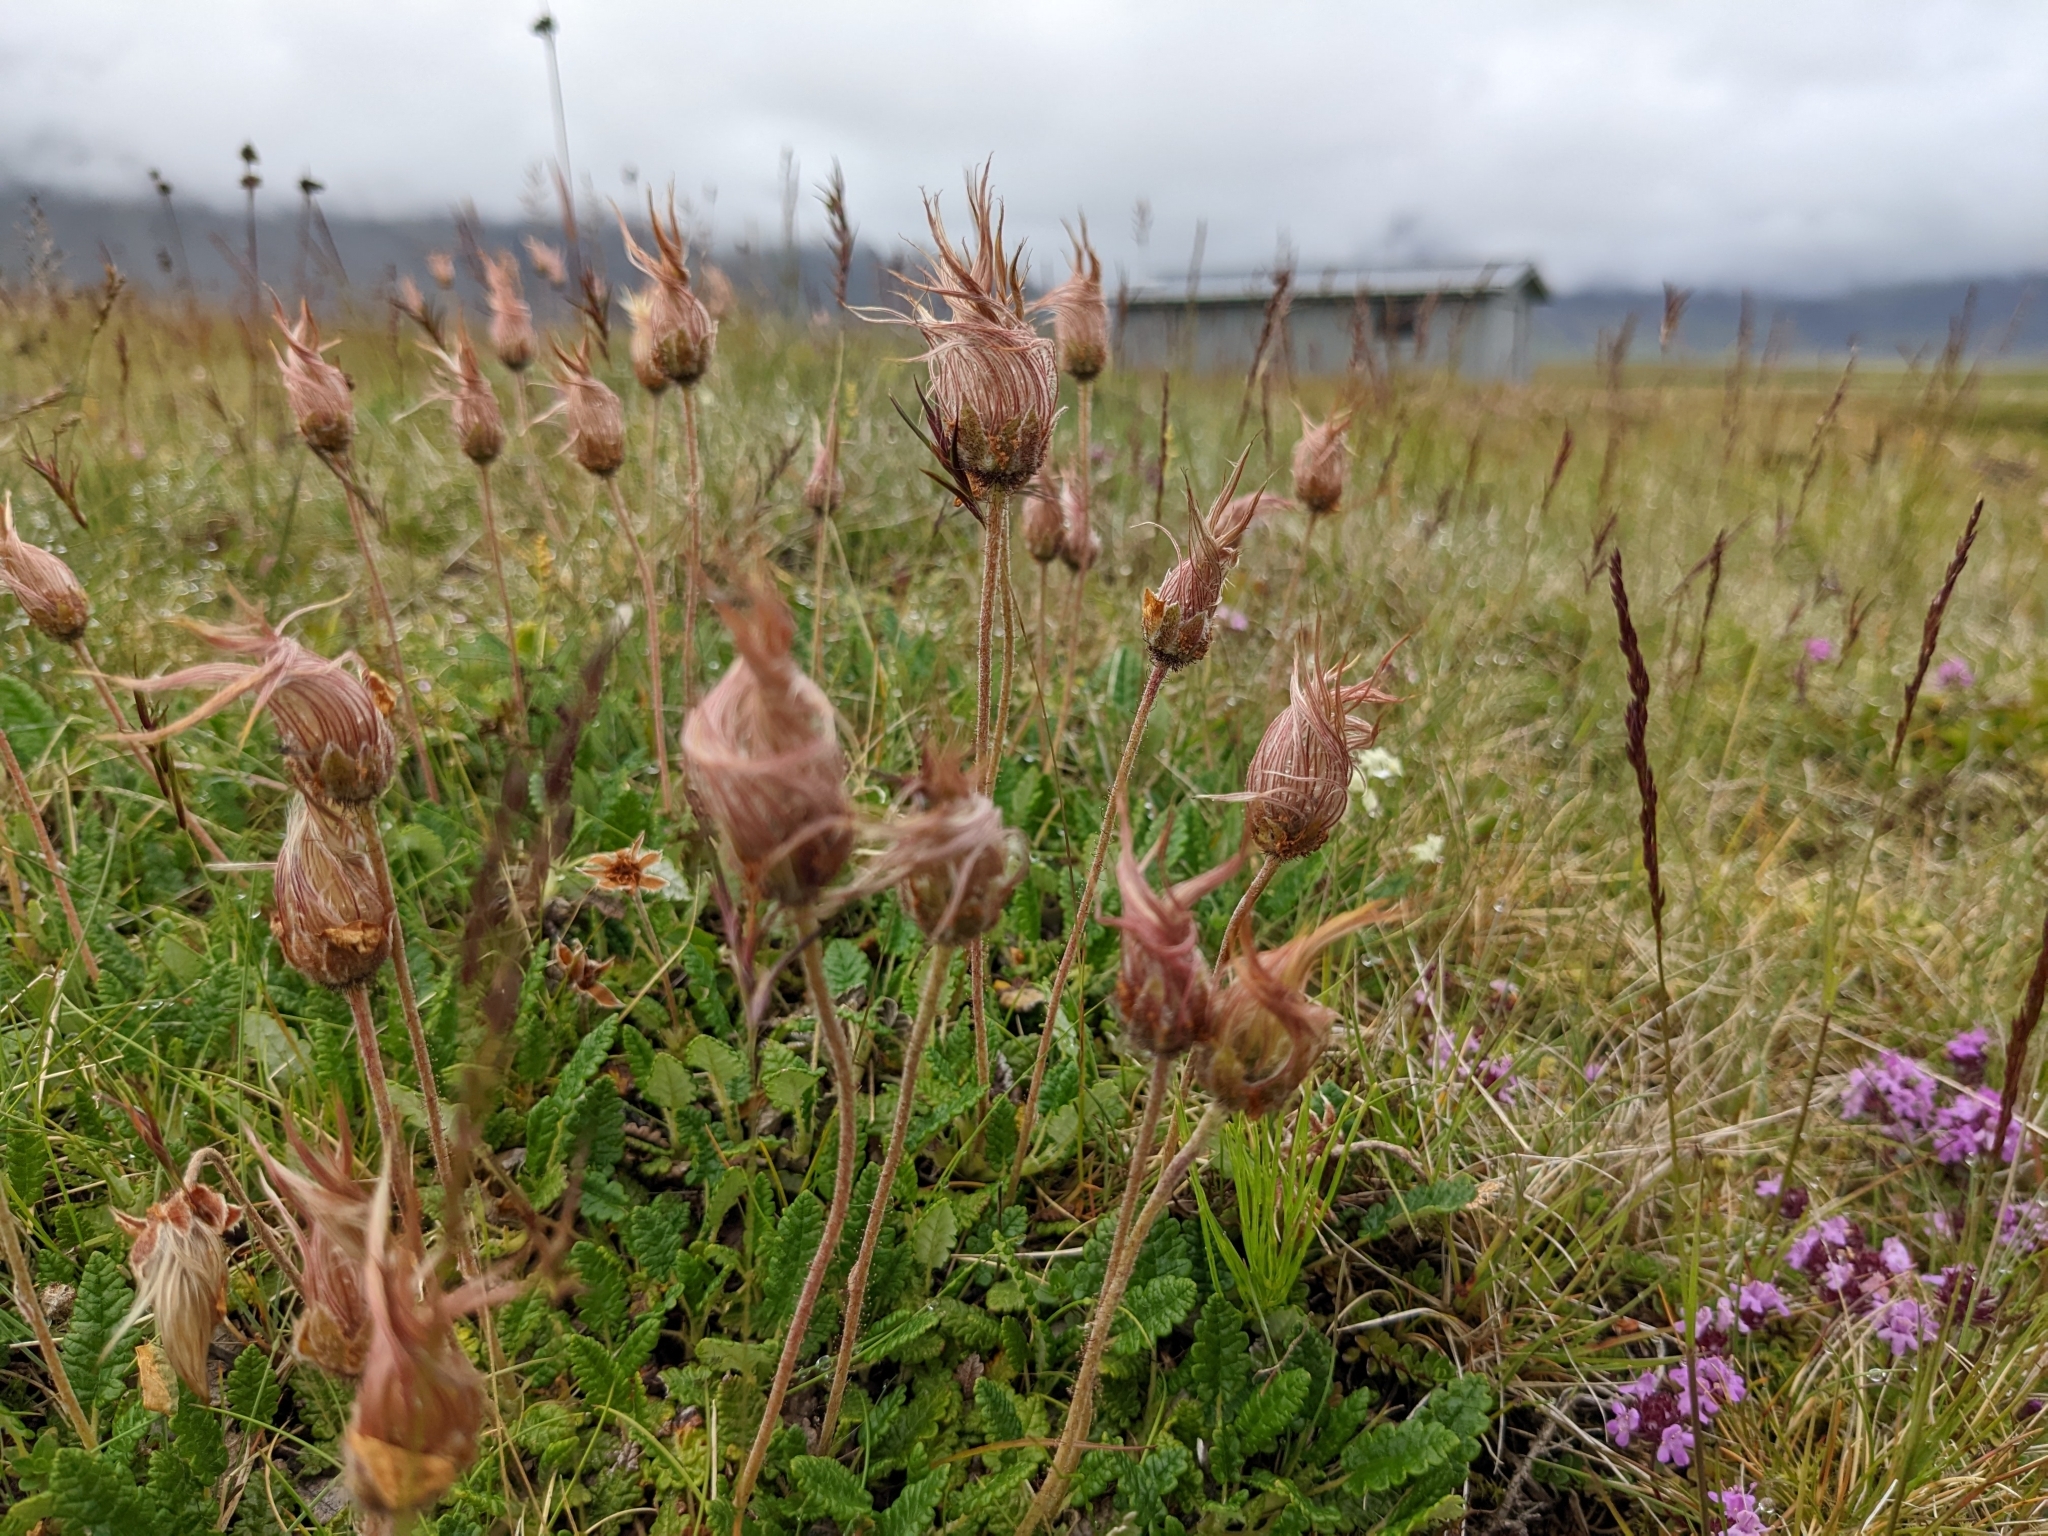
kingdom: Plantae
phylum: Tracheophyta
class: Magnoliopsida
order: Rosales
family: Rosaceae
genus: Dryas
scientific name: Dryas octopetala
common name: Eight-petal mountain-avens
